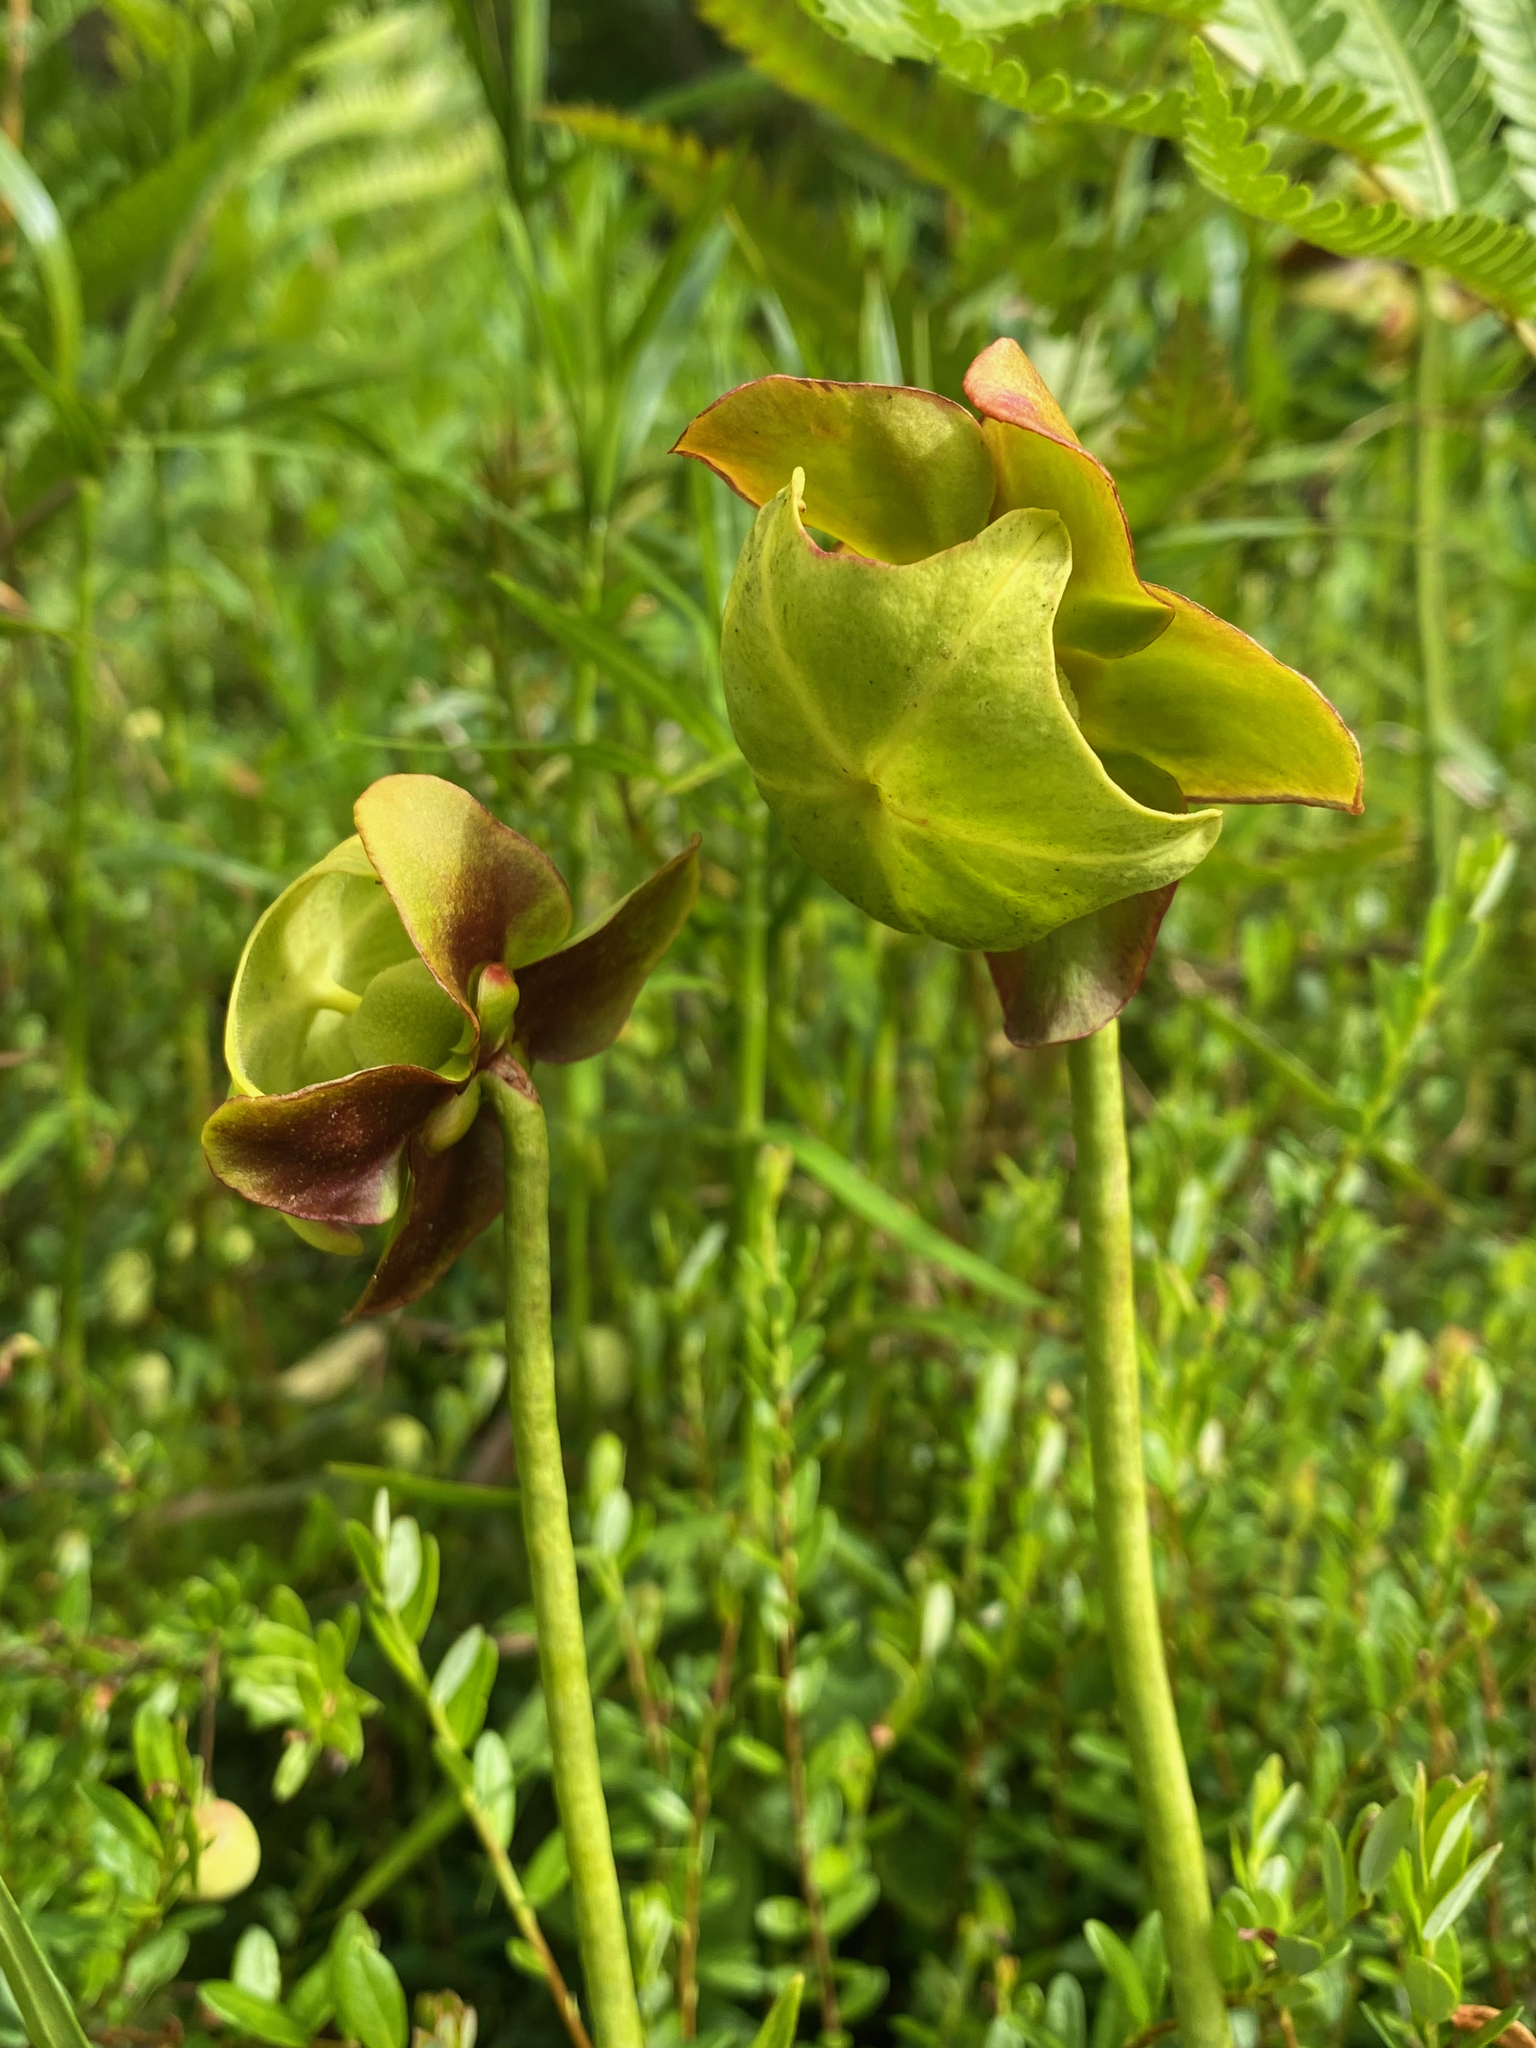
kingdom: Plantae
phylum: Tracheophyta
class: Magnoliopsida
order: Ericales
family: Sarraceniaceae
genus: Sarracenia
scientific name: Sarracenia purpurea
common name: Pitcherplant
